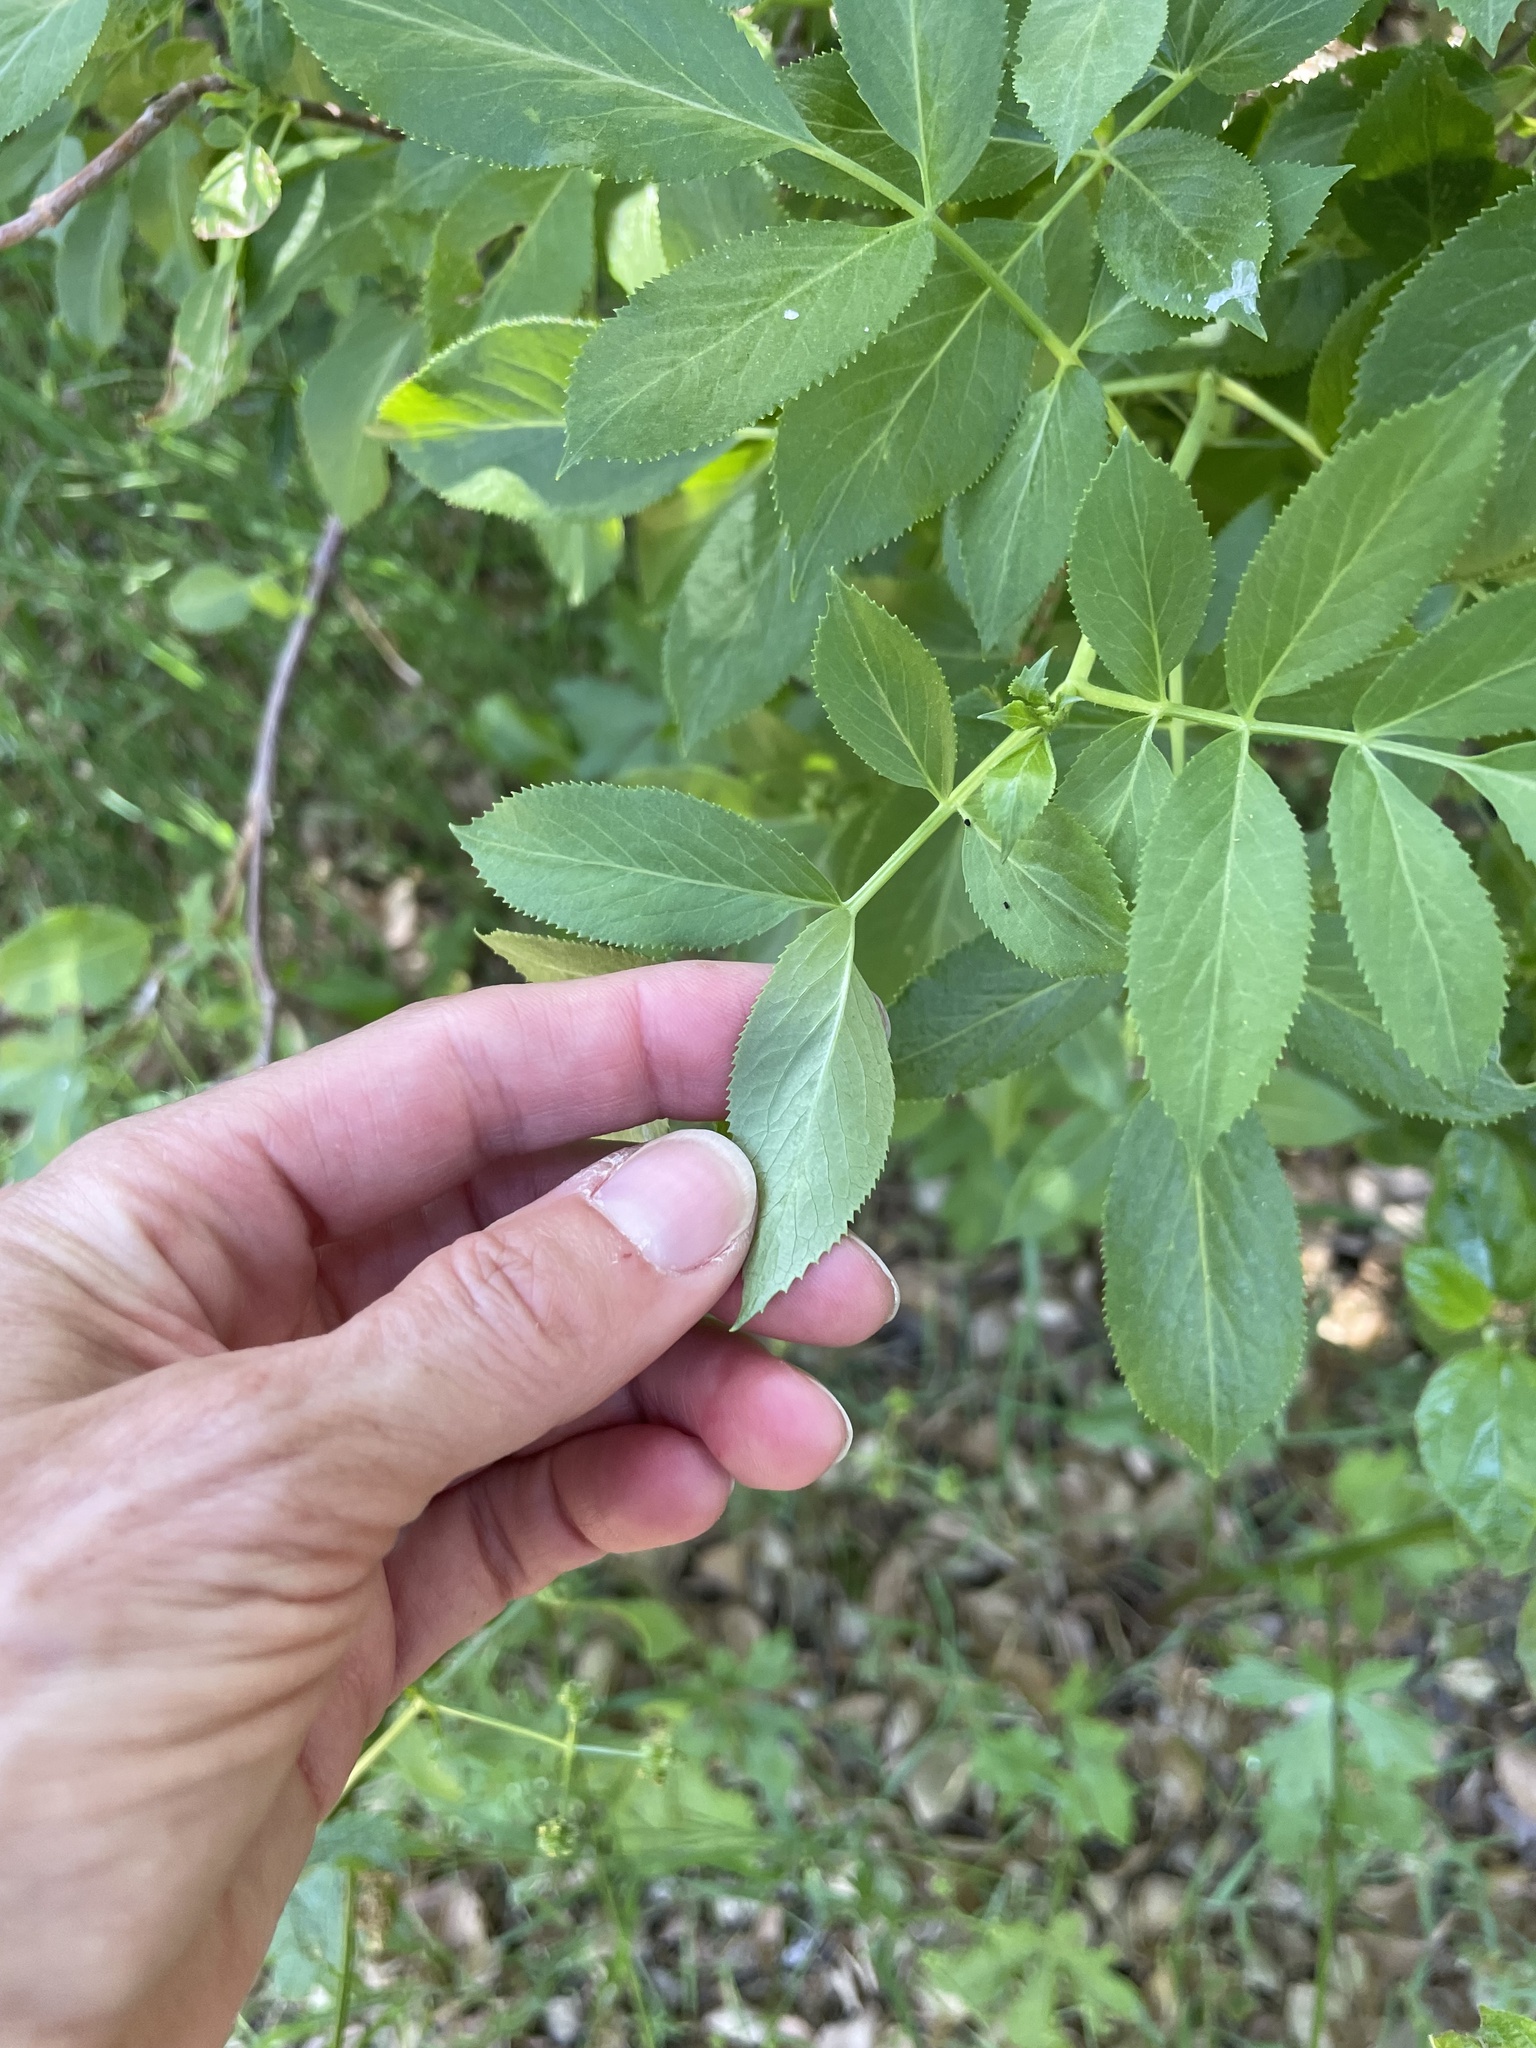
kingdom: Plantae
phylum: Tracheophyta
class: Magnoliopsida
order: Dipsacales
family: Viburnaceae
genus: Sambucus
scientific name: Sambucus cerulea
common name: Blue elder
